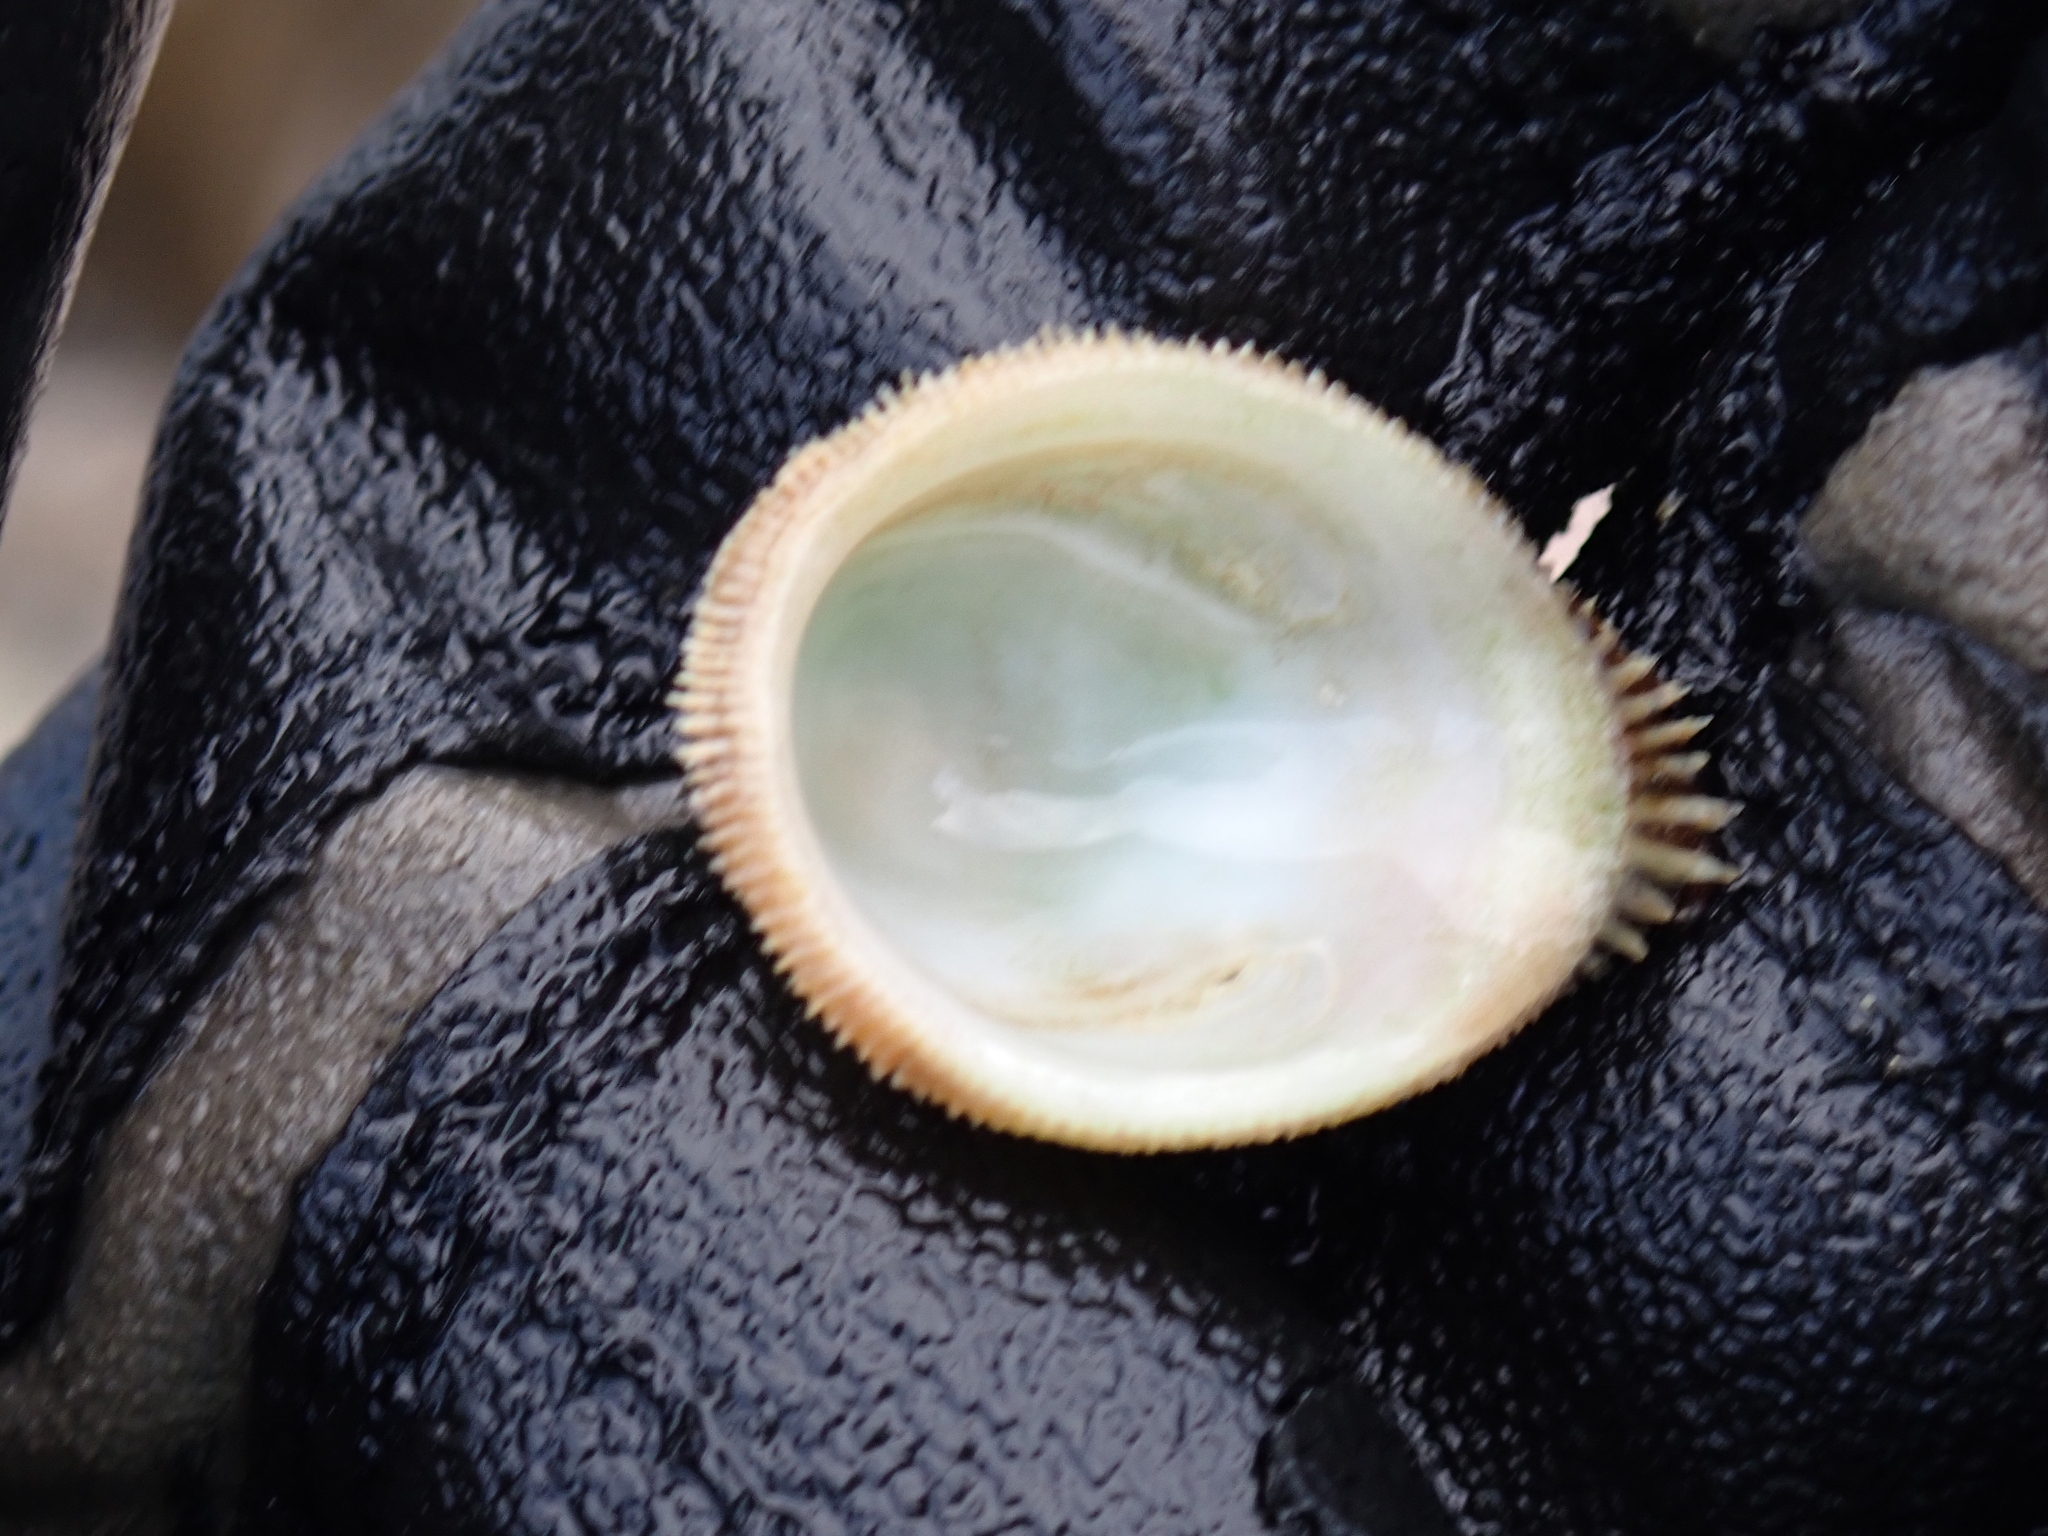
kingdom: Animalia
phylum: Mollusca
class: Gastropoda
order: Littorinimorpha
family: Hipponicidae
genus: Pilosabia
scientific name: Pilosabia trigona
